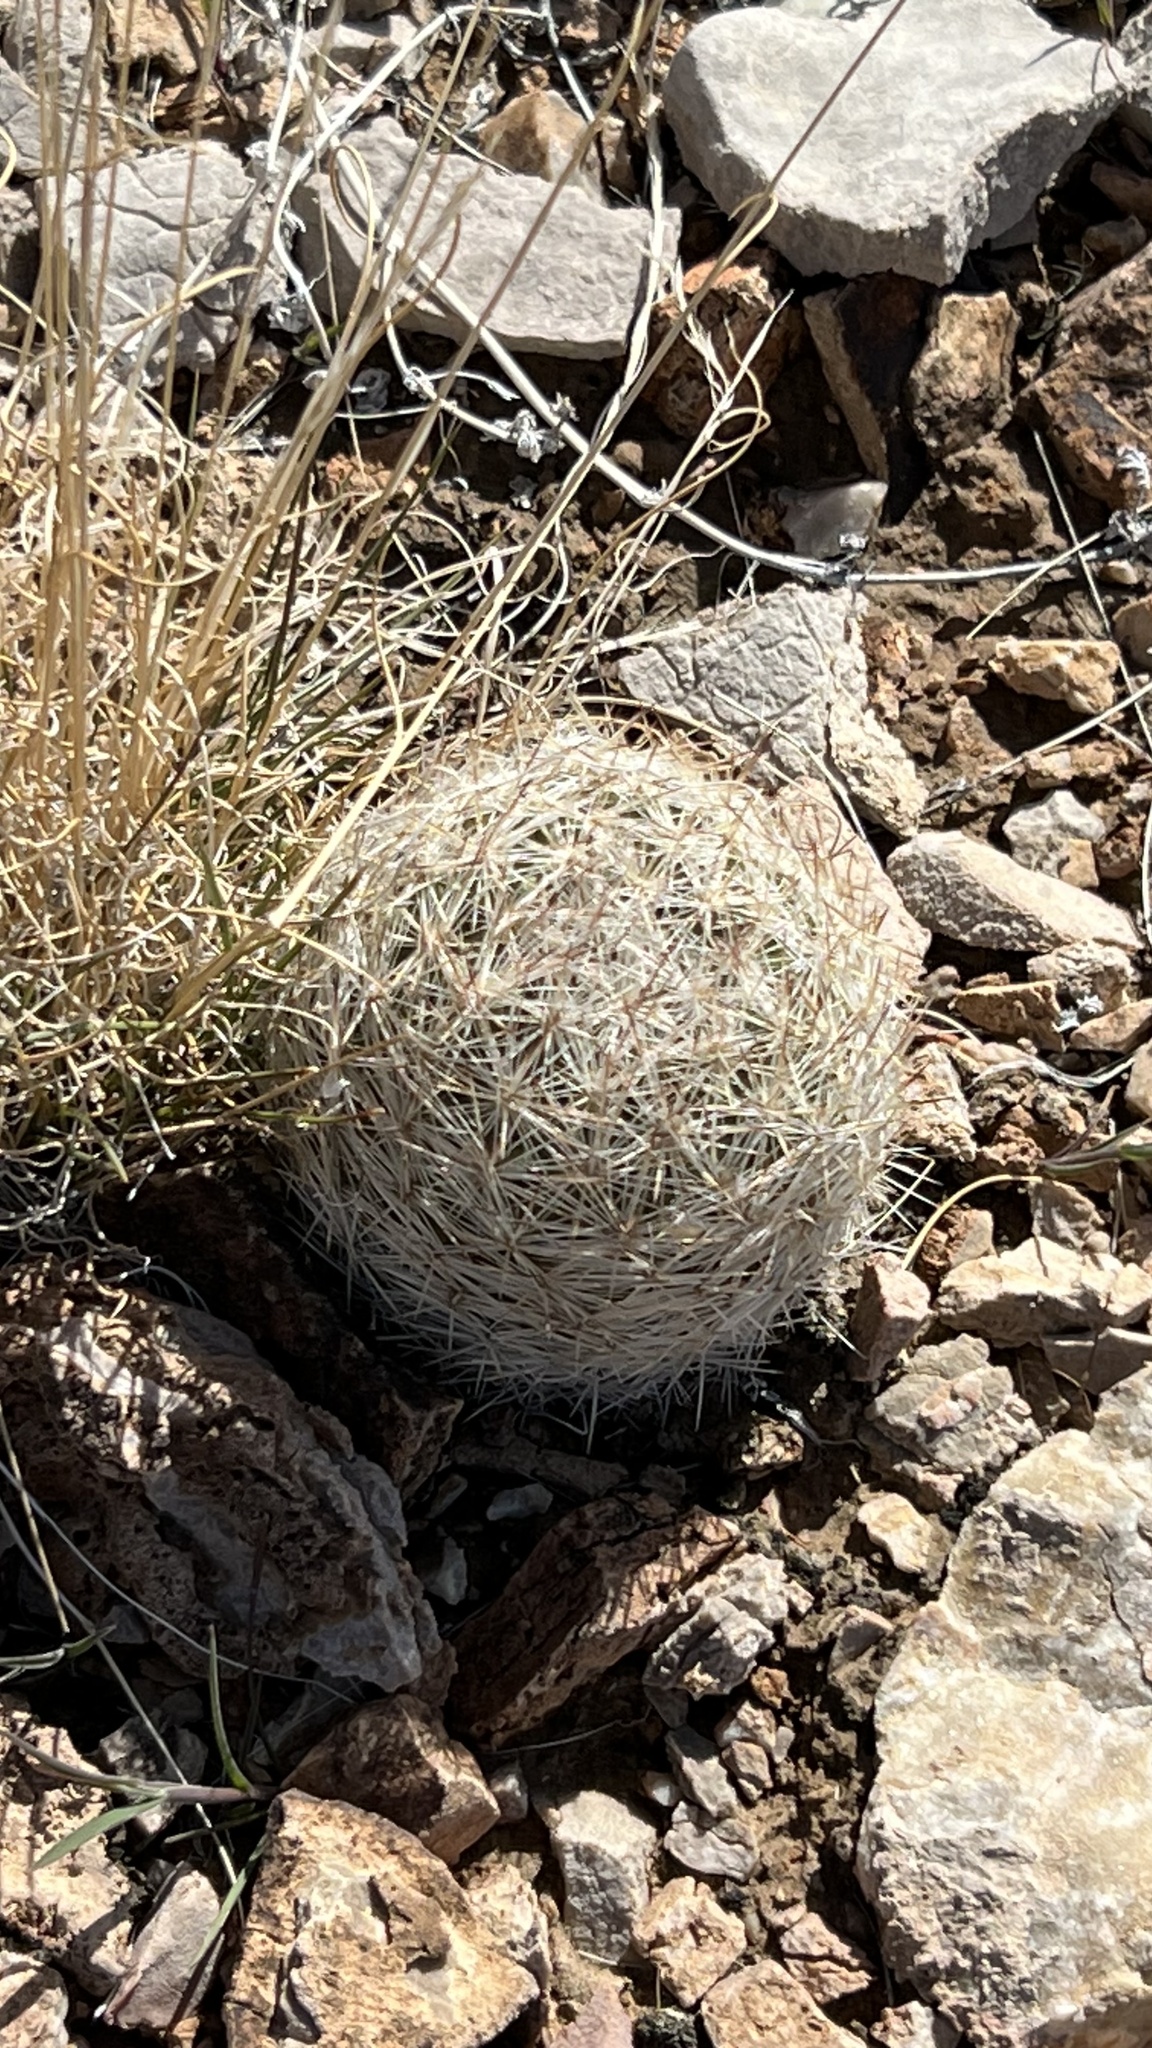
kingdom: Plantae
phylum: Tracheophyta
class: Magnoliopsida
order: Caryophyllales
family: Cactaceae
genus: Pelecyphora
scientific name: Pelecyphora dasyacantha
